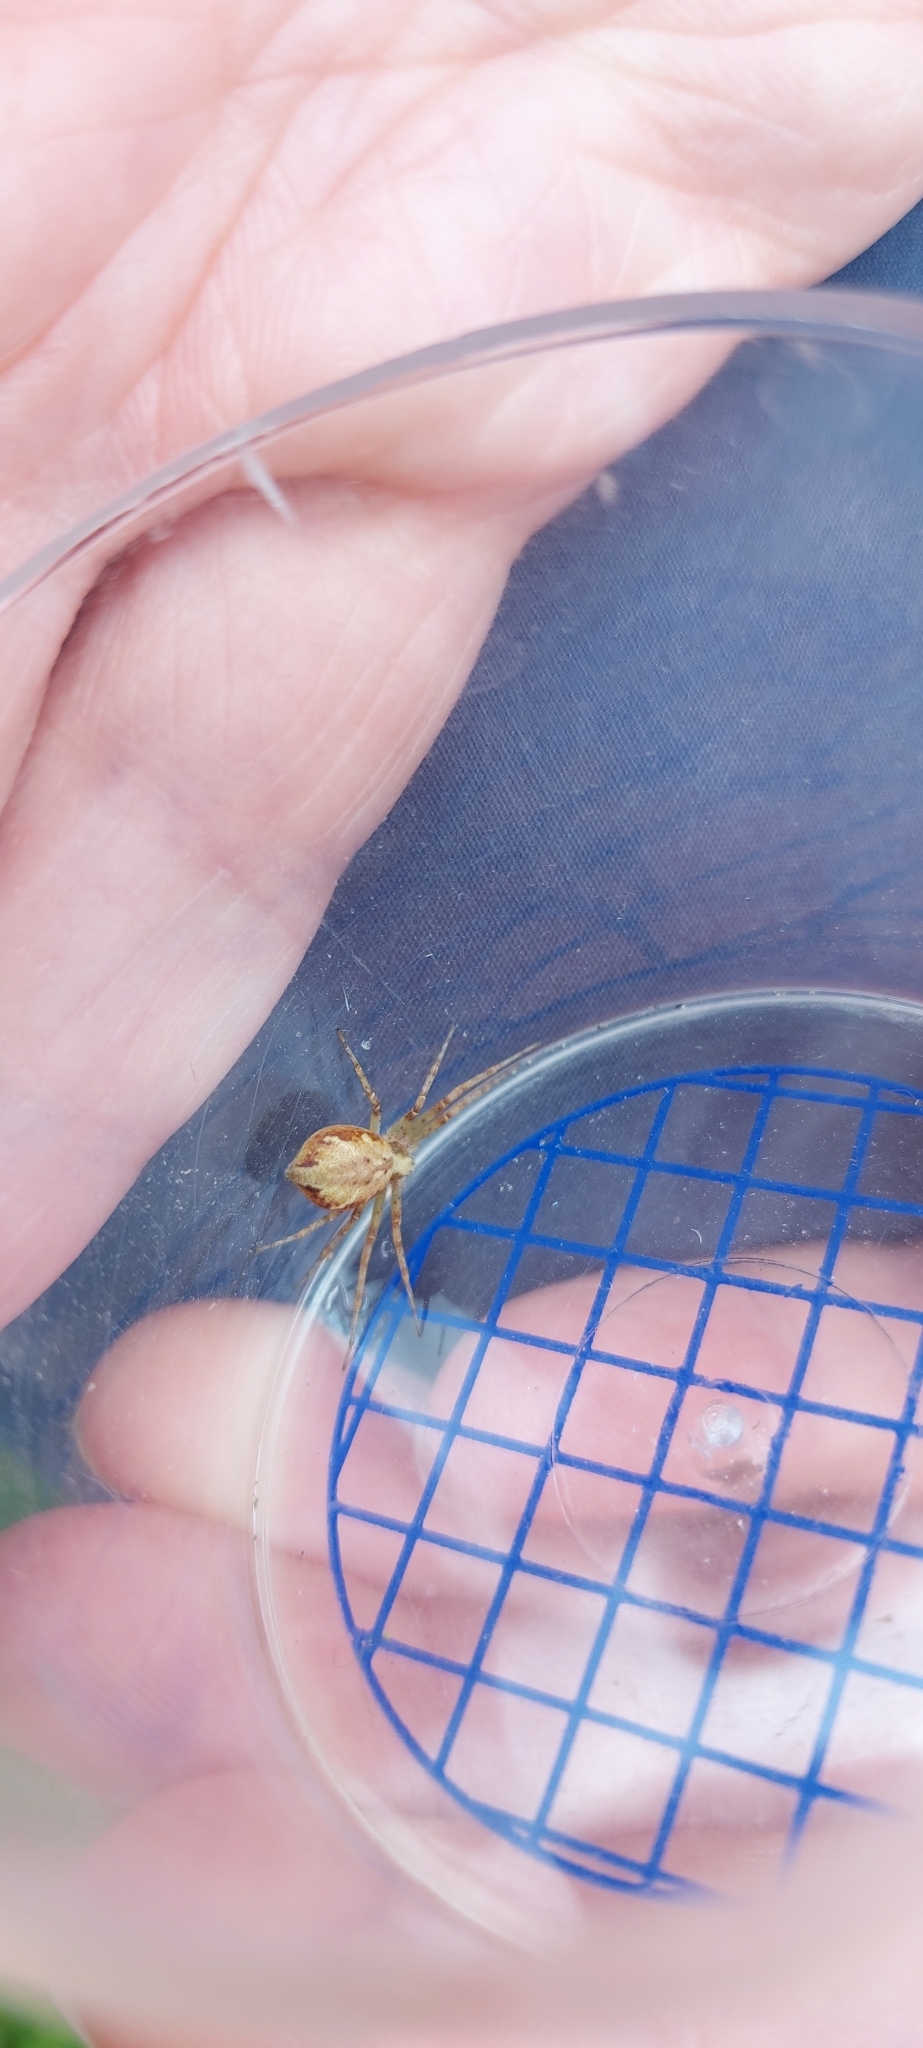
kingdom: Animalia
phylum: Arthropoda
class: Arachnida
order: Araneae
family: Philodromidae
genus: Philodromus
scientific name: Philodromus
